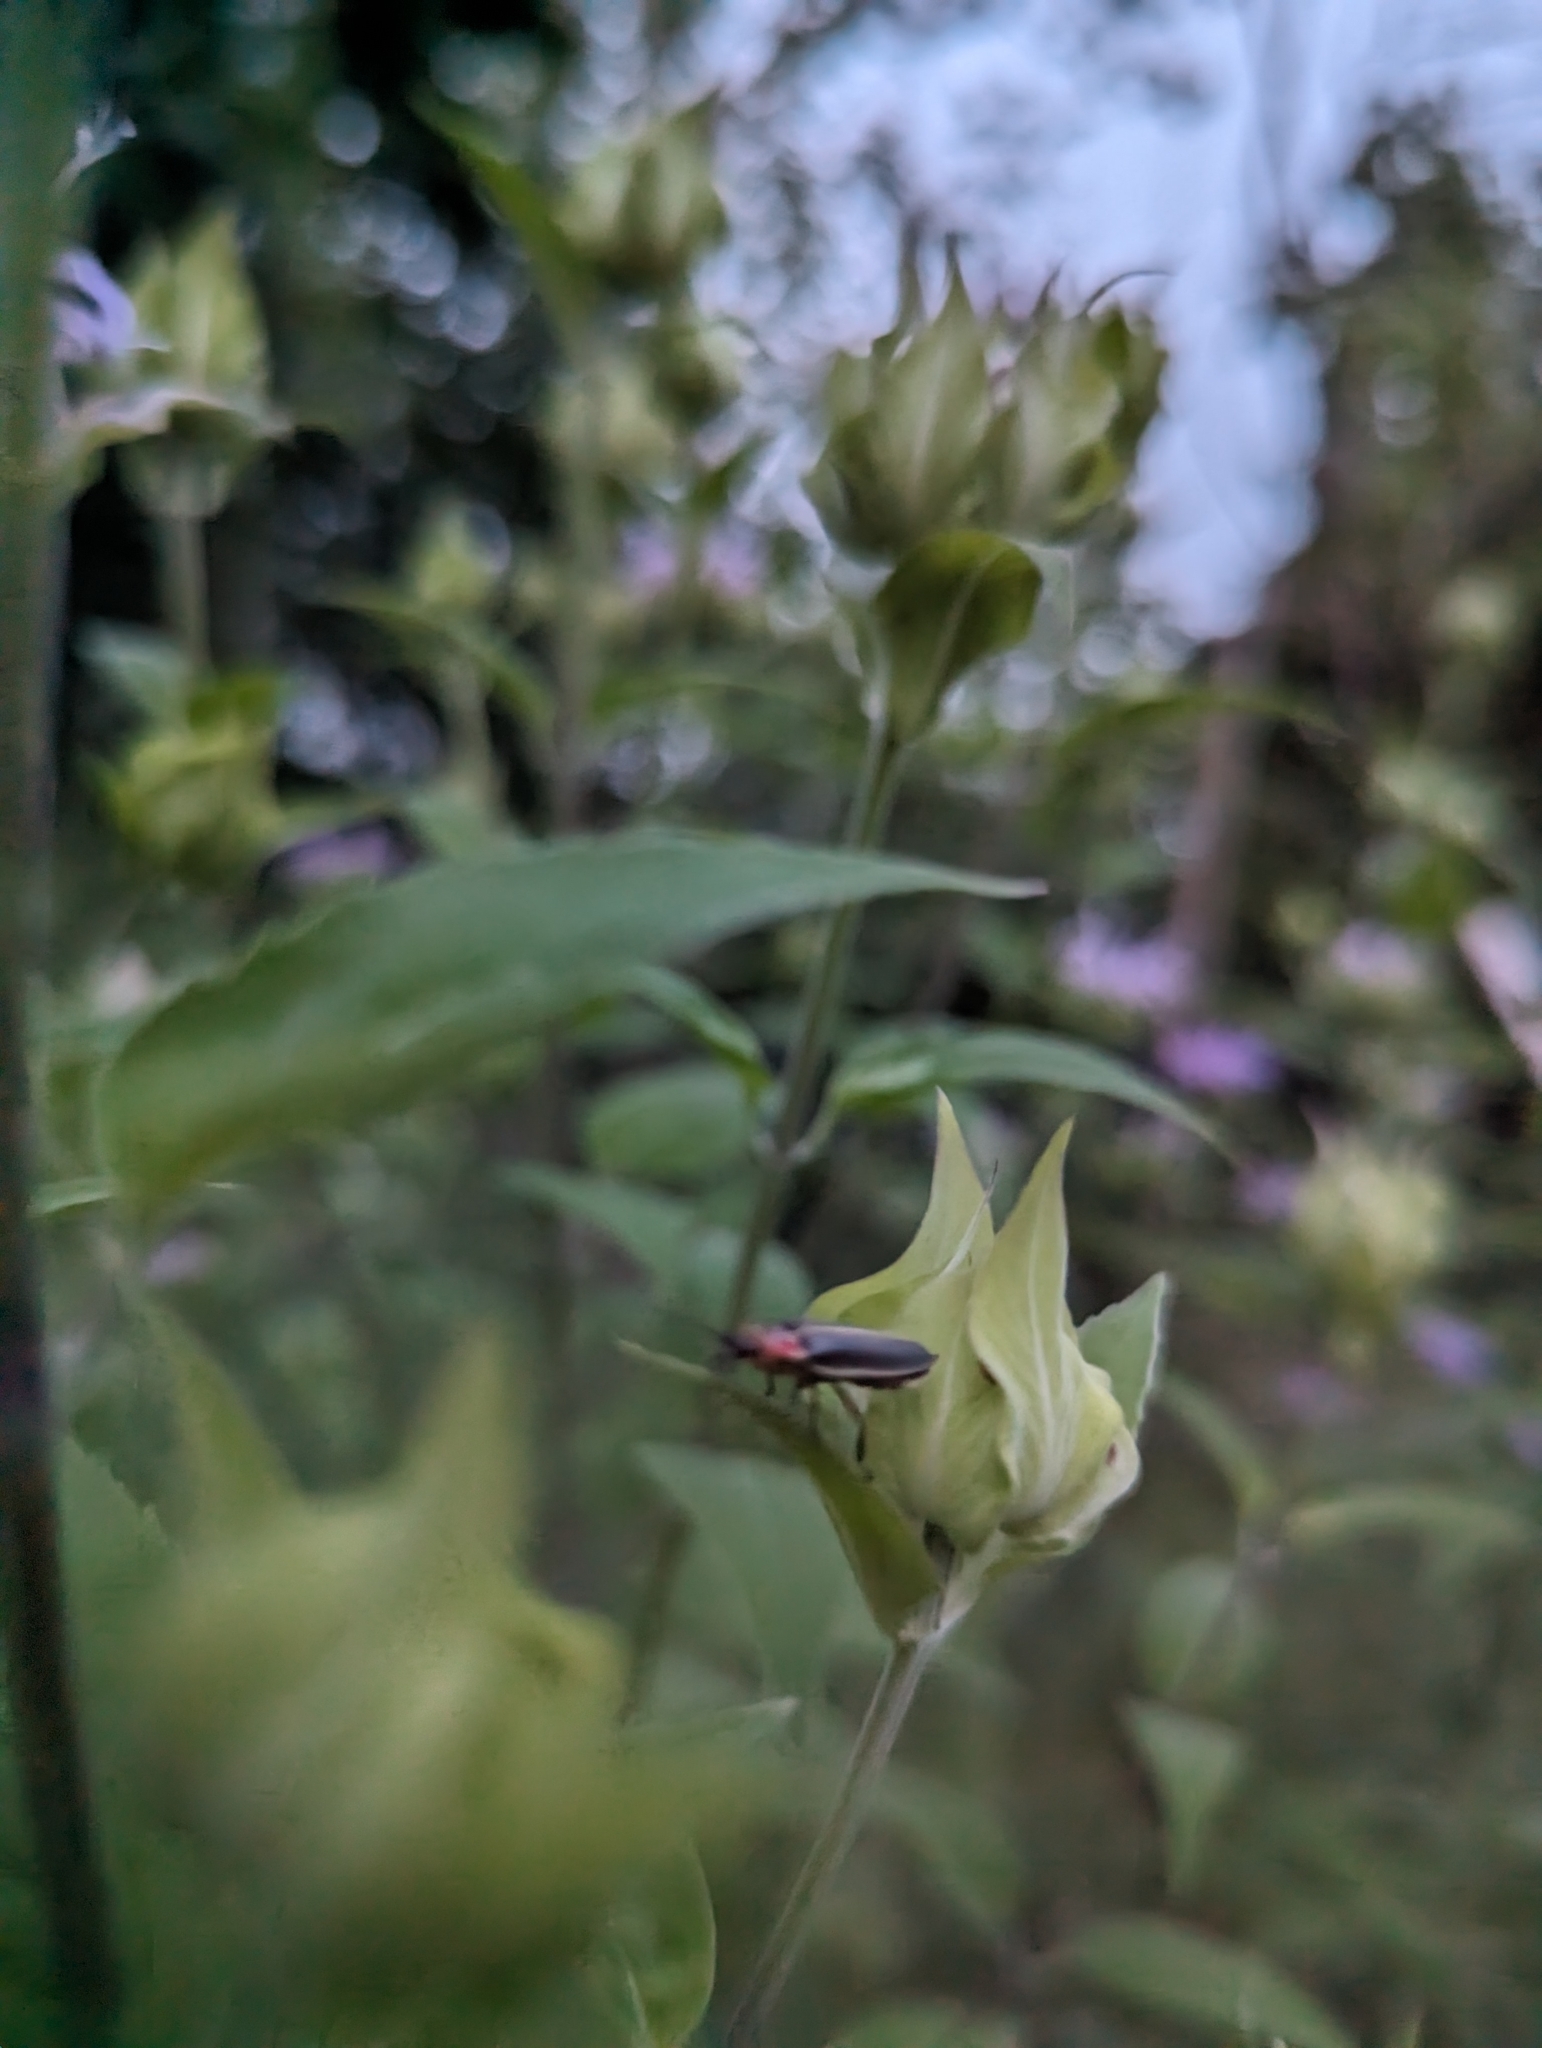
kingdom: Animalia
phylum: Arthropoda
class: Insecta
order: Coleoptera
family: Lampyridae
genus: Photinus
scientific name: Photinus pyralis
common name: Big dipper firefly
